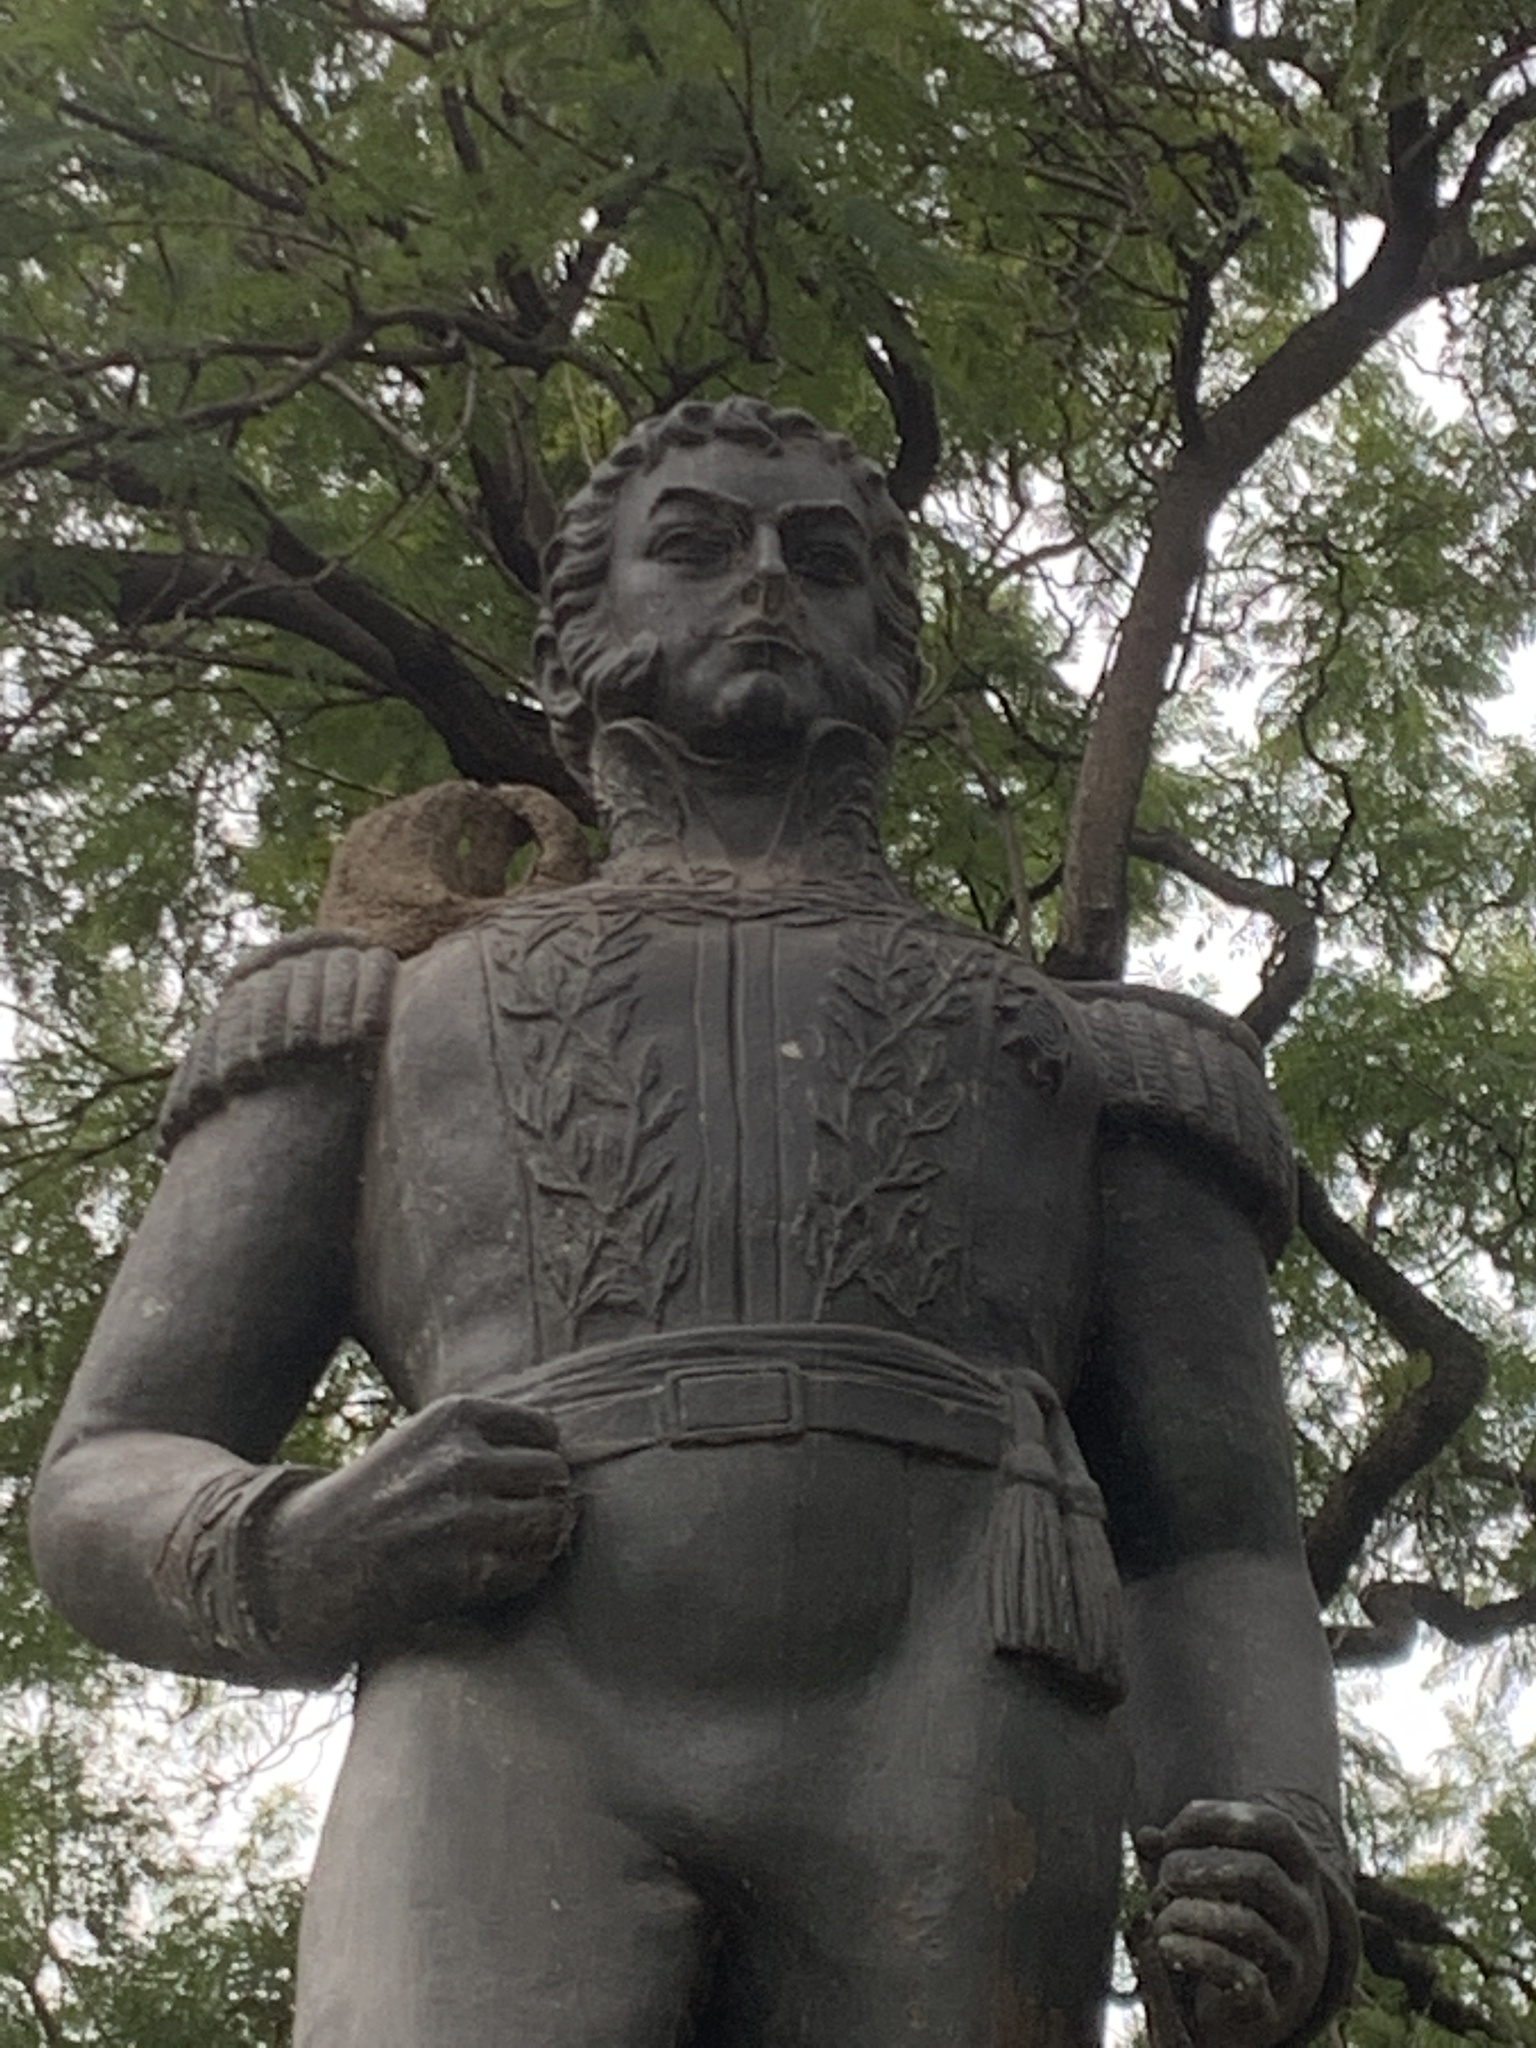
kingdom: Animalia
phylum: Chordata
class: Aves
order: Passeriformes
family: Furnariidae
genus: Furnarius
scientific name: Furnarius rufus
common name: Rufous hornero
